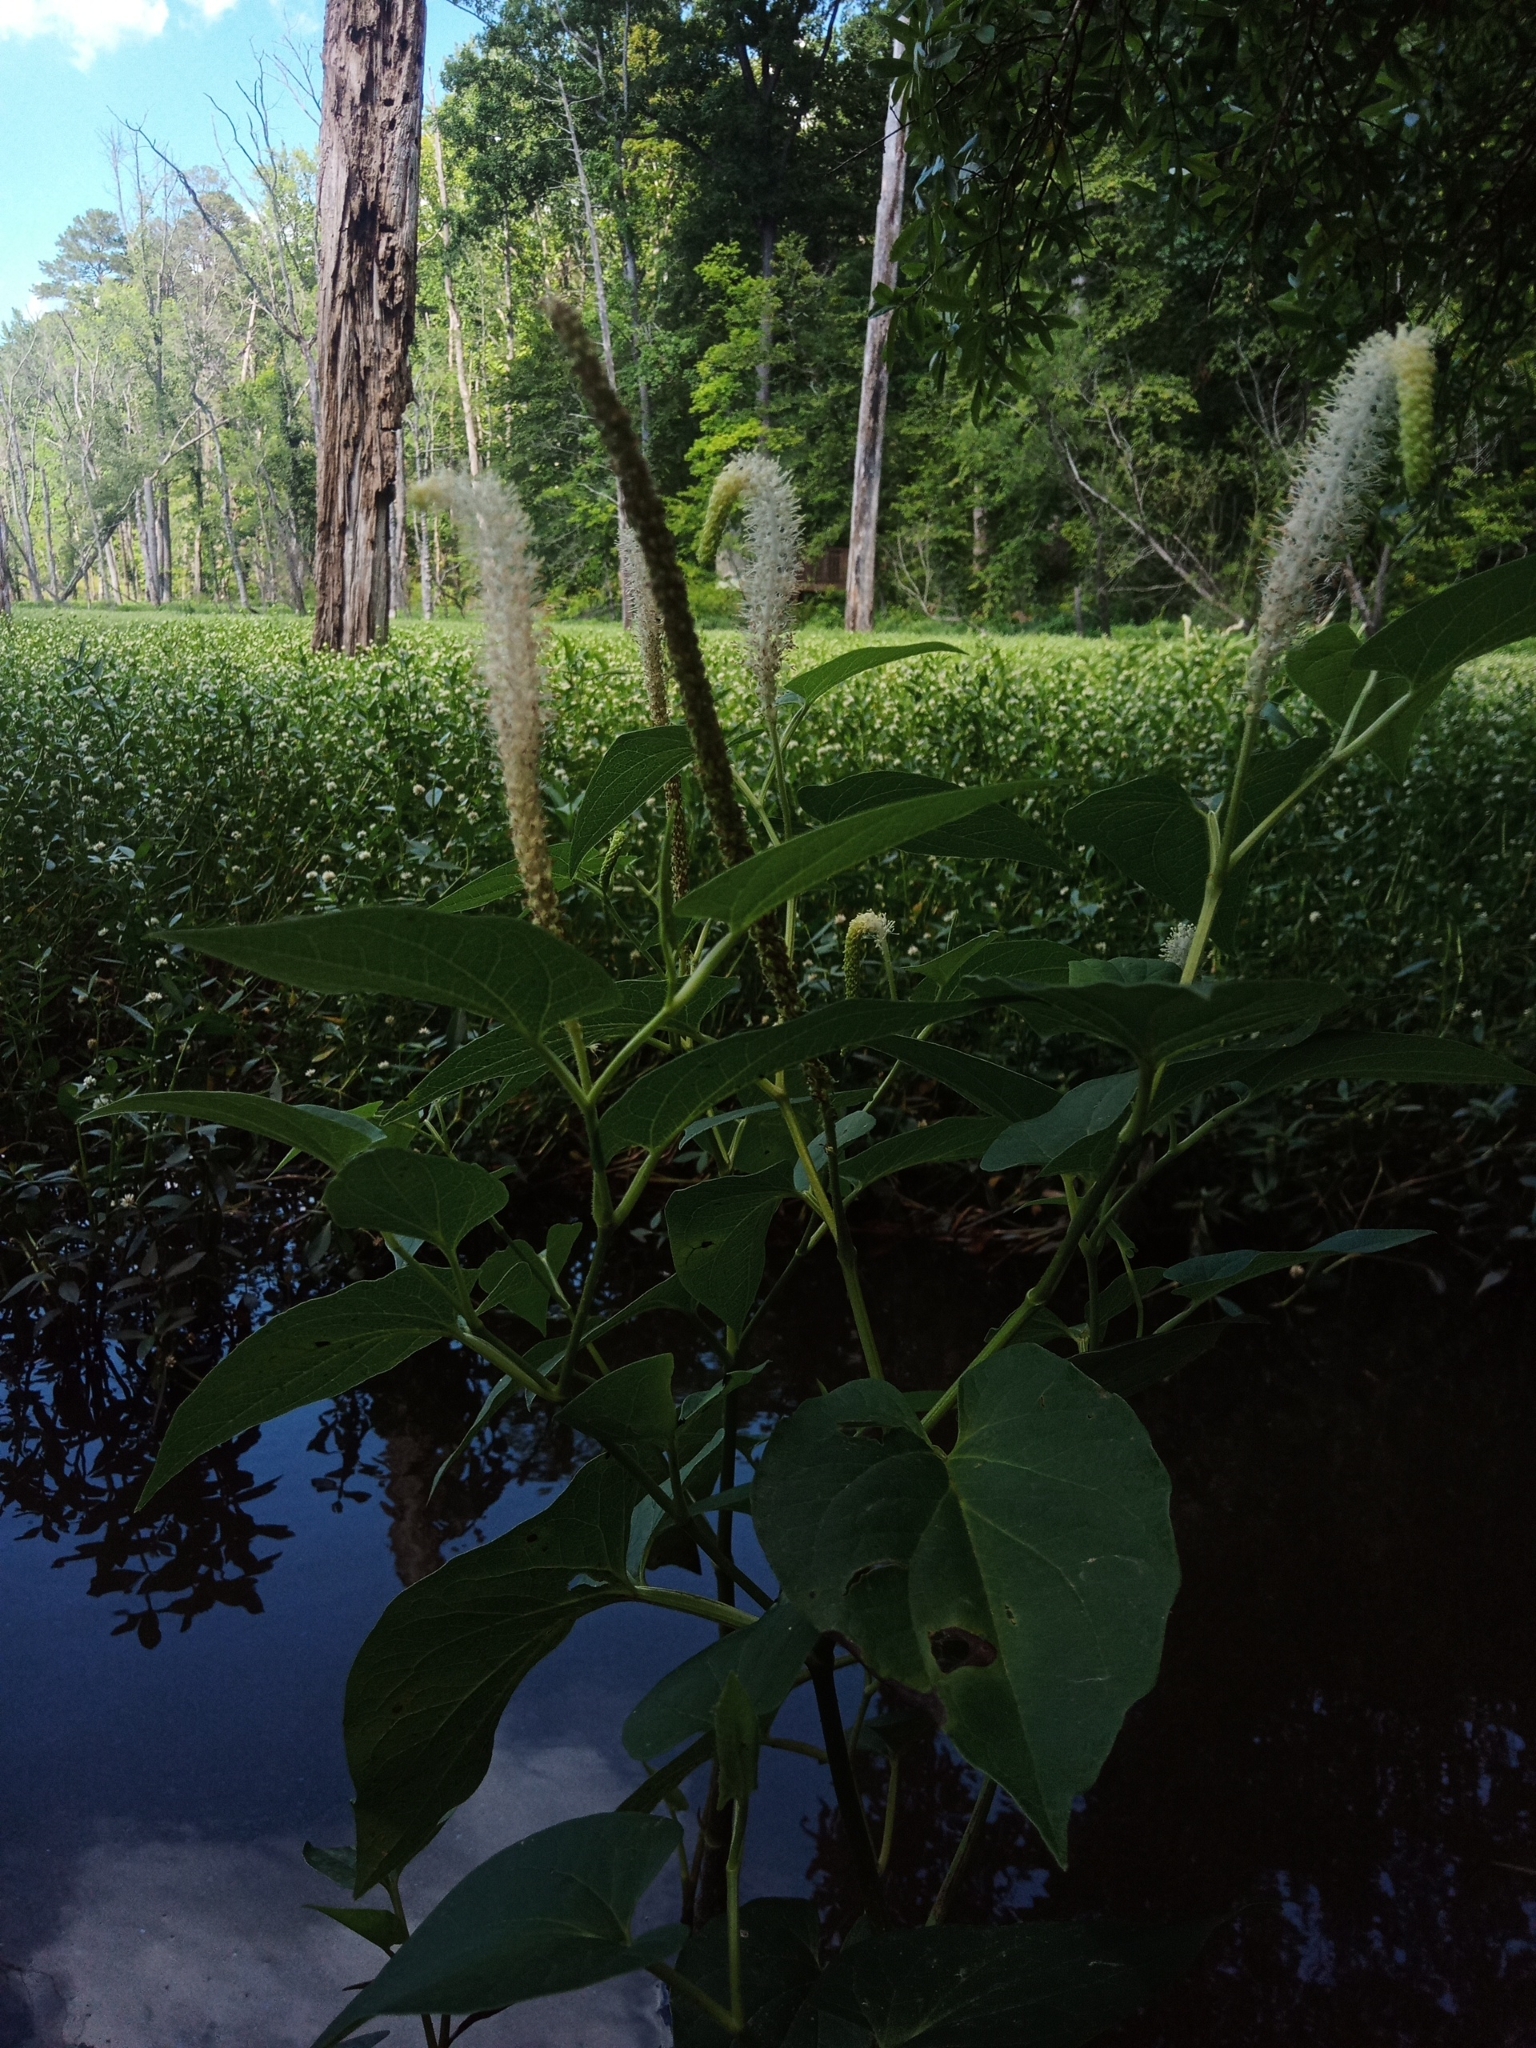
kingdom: Plantae
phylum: Tracheophyta
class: Magnoliopsida
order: Piperales
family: Saururaceae
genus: Saururus
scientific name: Saururus cernuus
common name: Lizard's-tail
